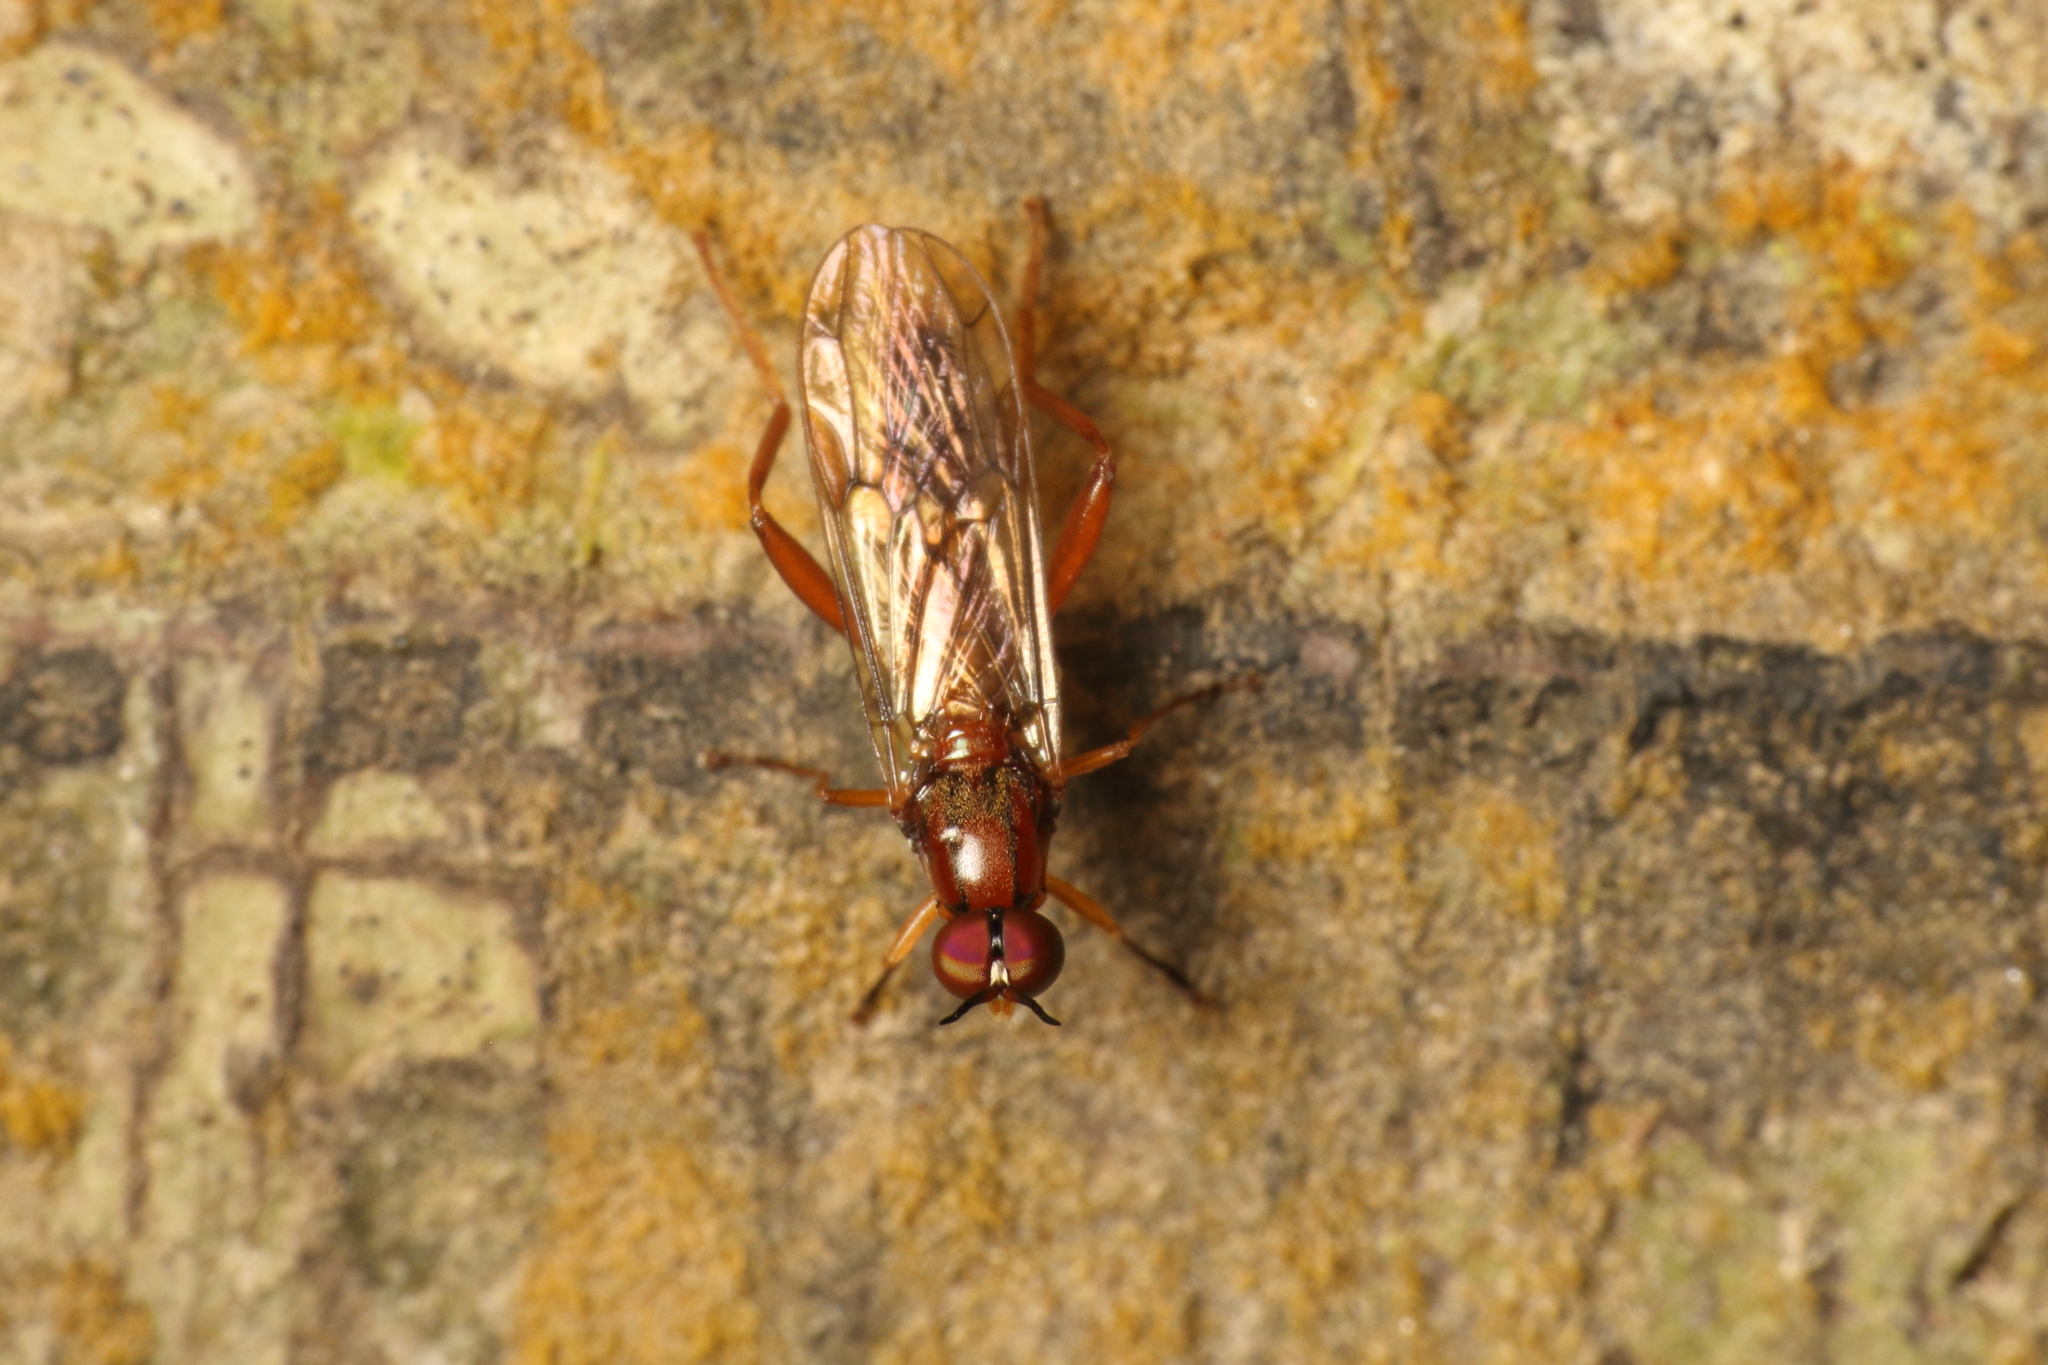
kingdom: Animalia
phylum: Arthropoda
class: Insecta
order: Diptera
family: Stratiomyidae
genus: Benhamyia
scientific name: Benhamyia straznitzkii
